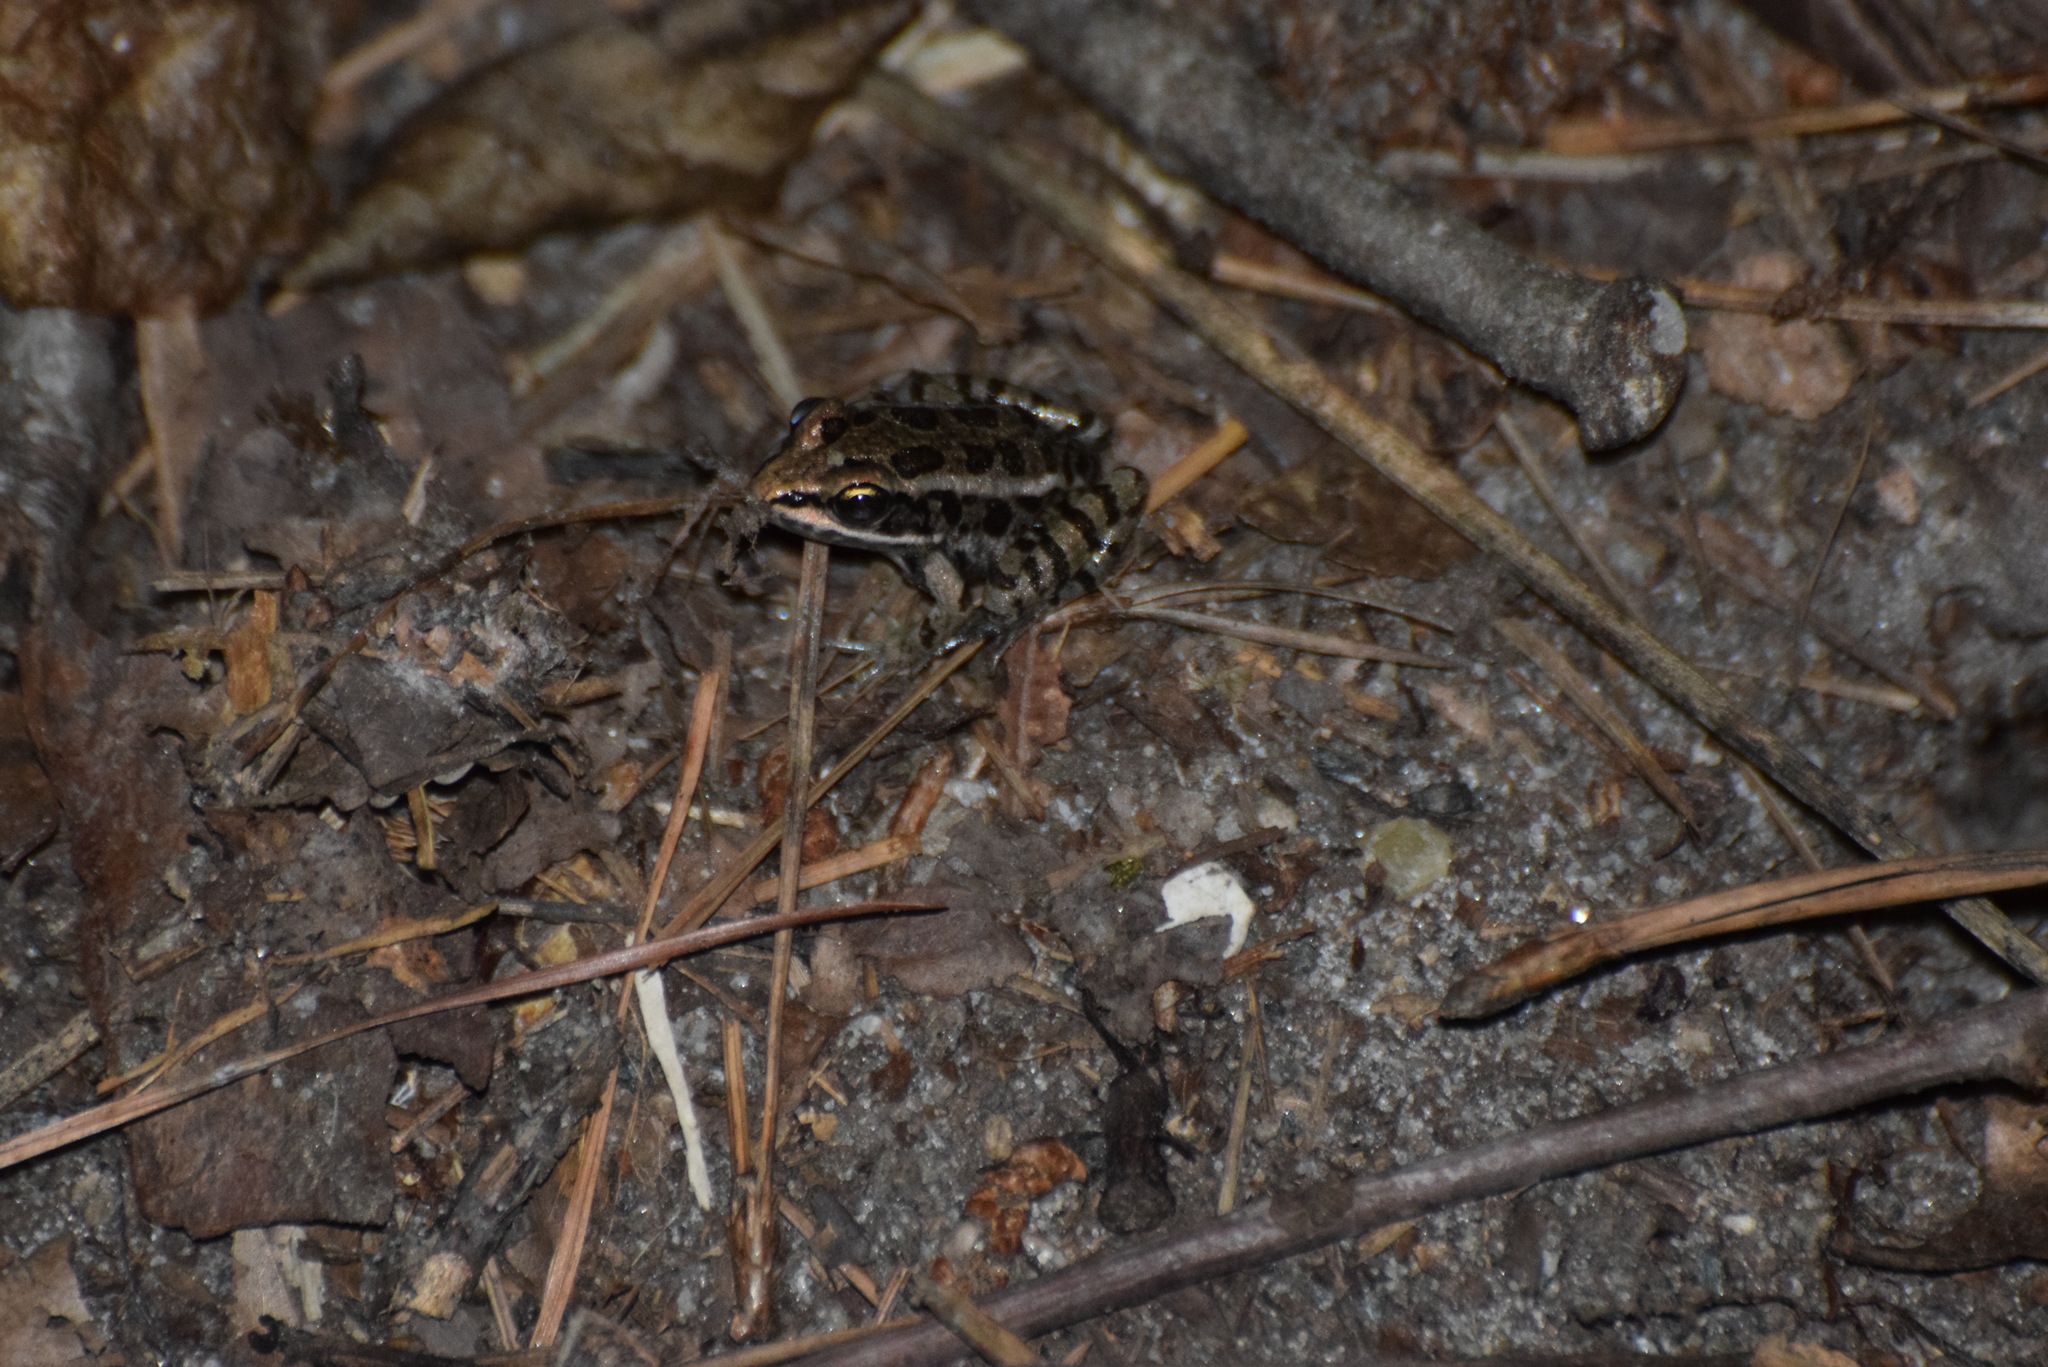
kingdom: Animalia
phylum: Chordata
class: Amphibia
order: Anura
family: Ranidae
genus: Lithobates
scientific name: Lithobates palustris
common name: Pickerel frog
